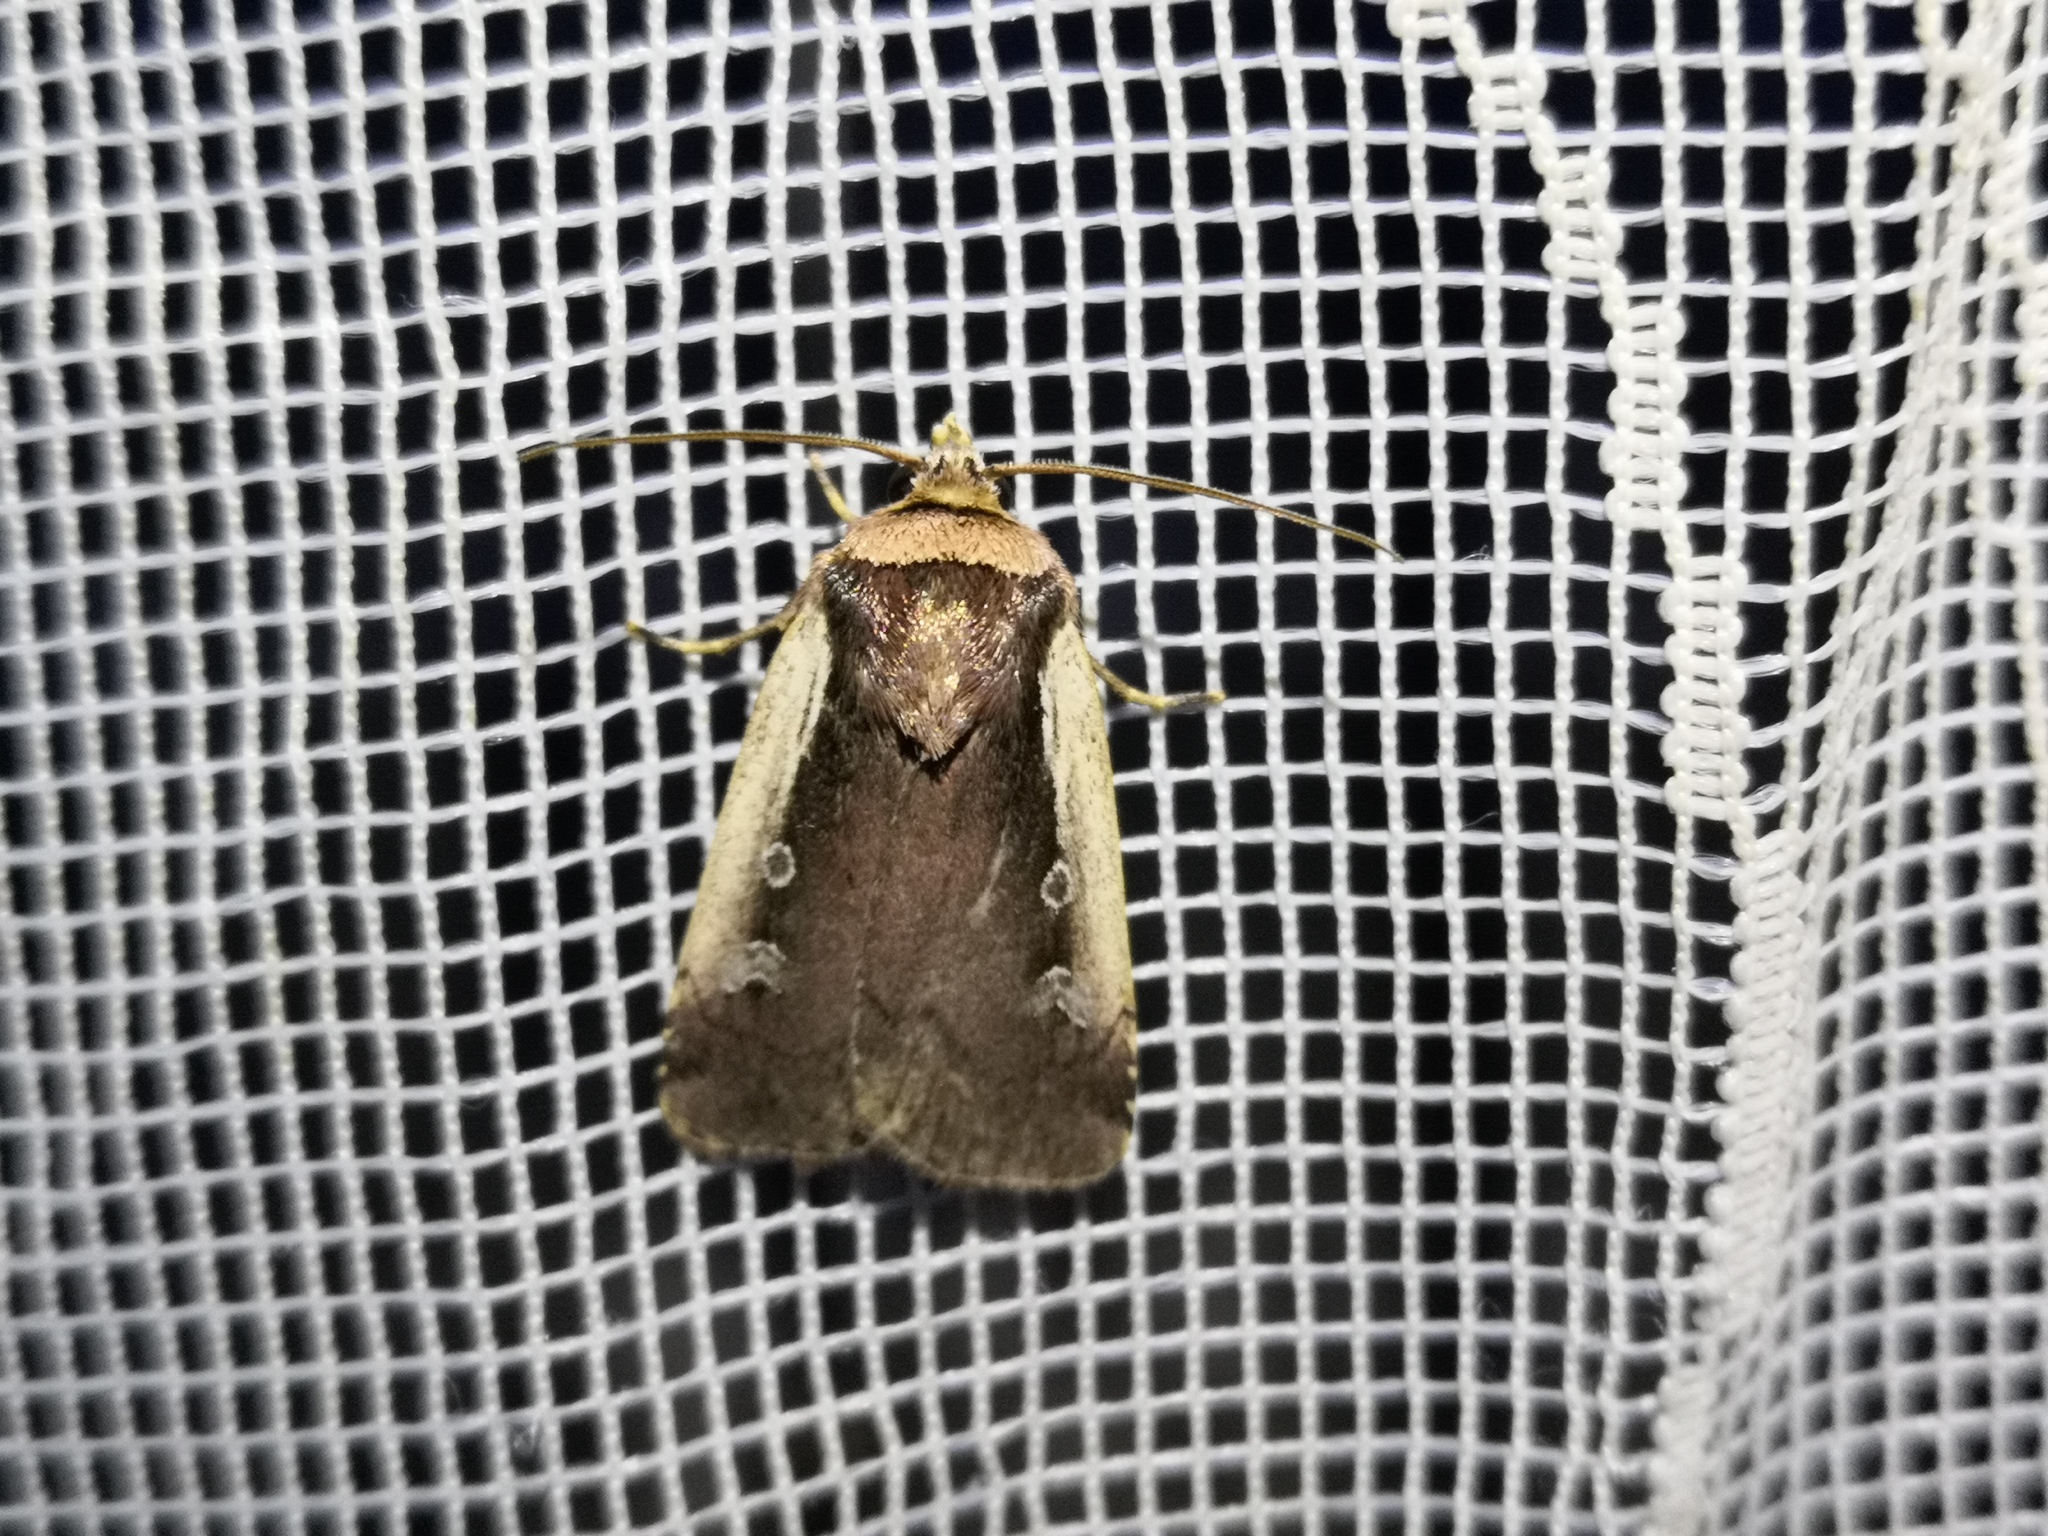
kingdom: Animalia
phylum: Arthropoda
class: Insecta
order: Lepidoptera
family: Noctuidae
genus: Ochropleura
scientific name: Ochropleura plecta
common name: Flame shoulder
